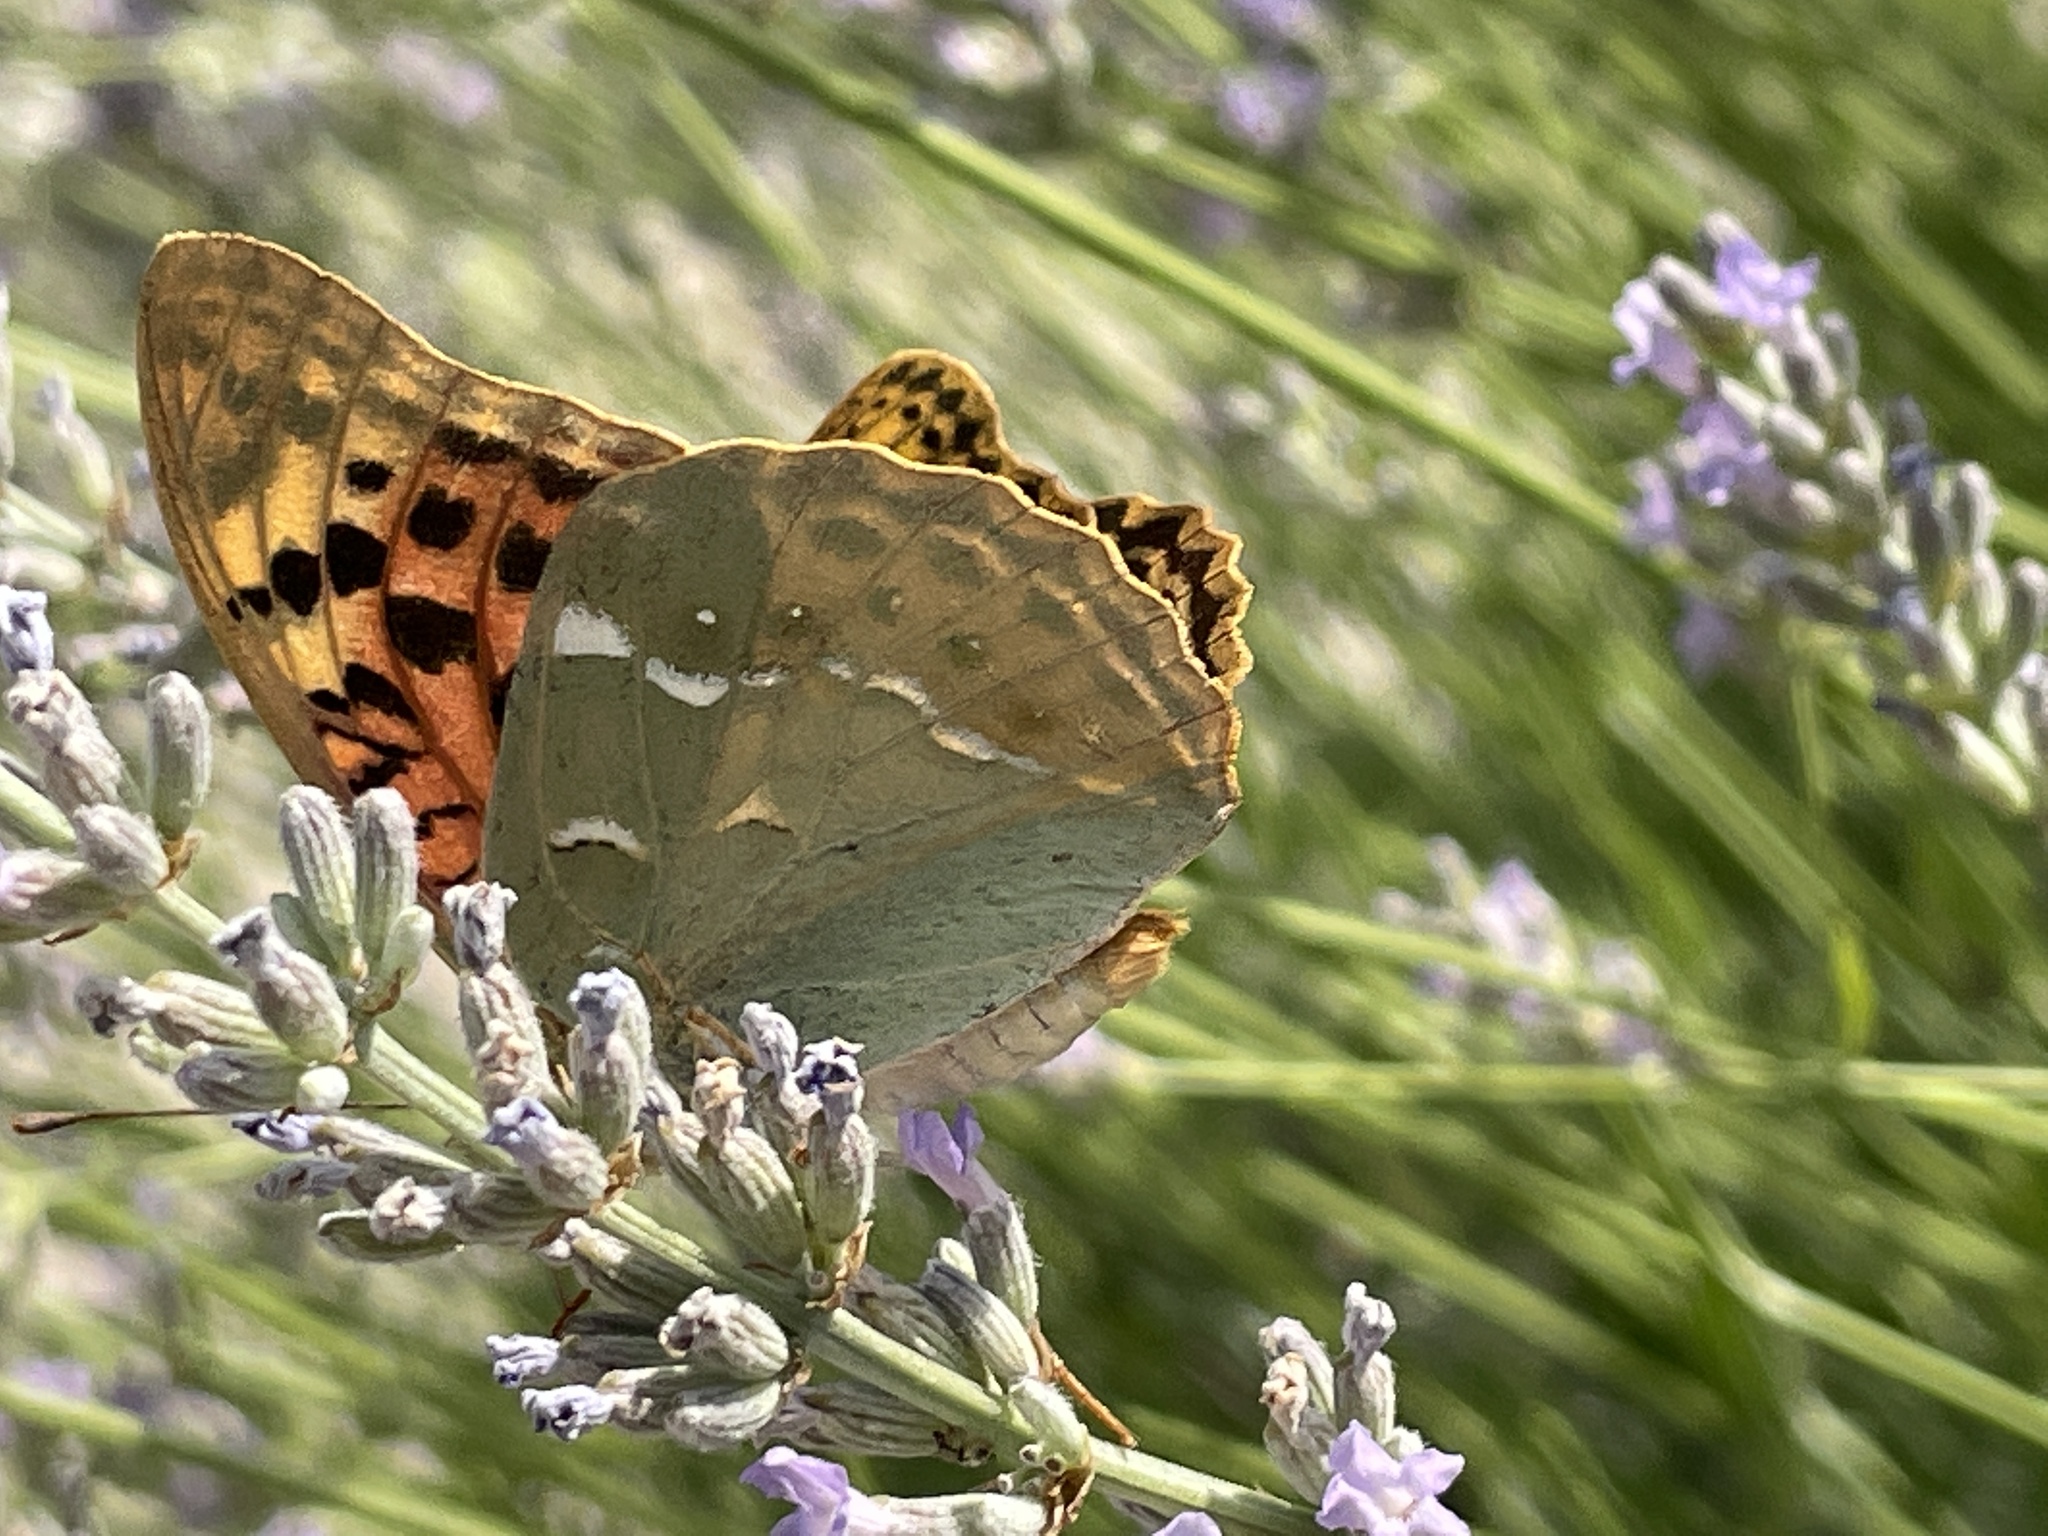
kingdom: Animalia
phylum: Arthropoda
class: Insecta
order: Lepidoptera
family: Nymphalidae
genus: Damora
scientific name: Damora pandora
